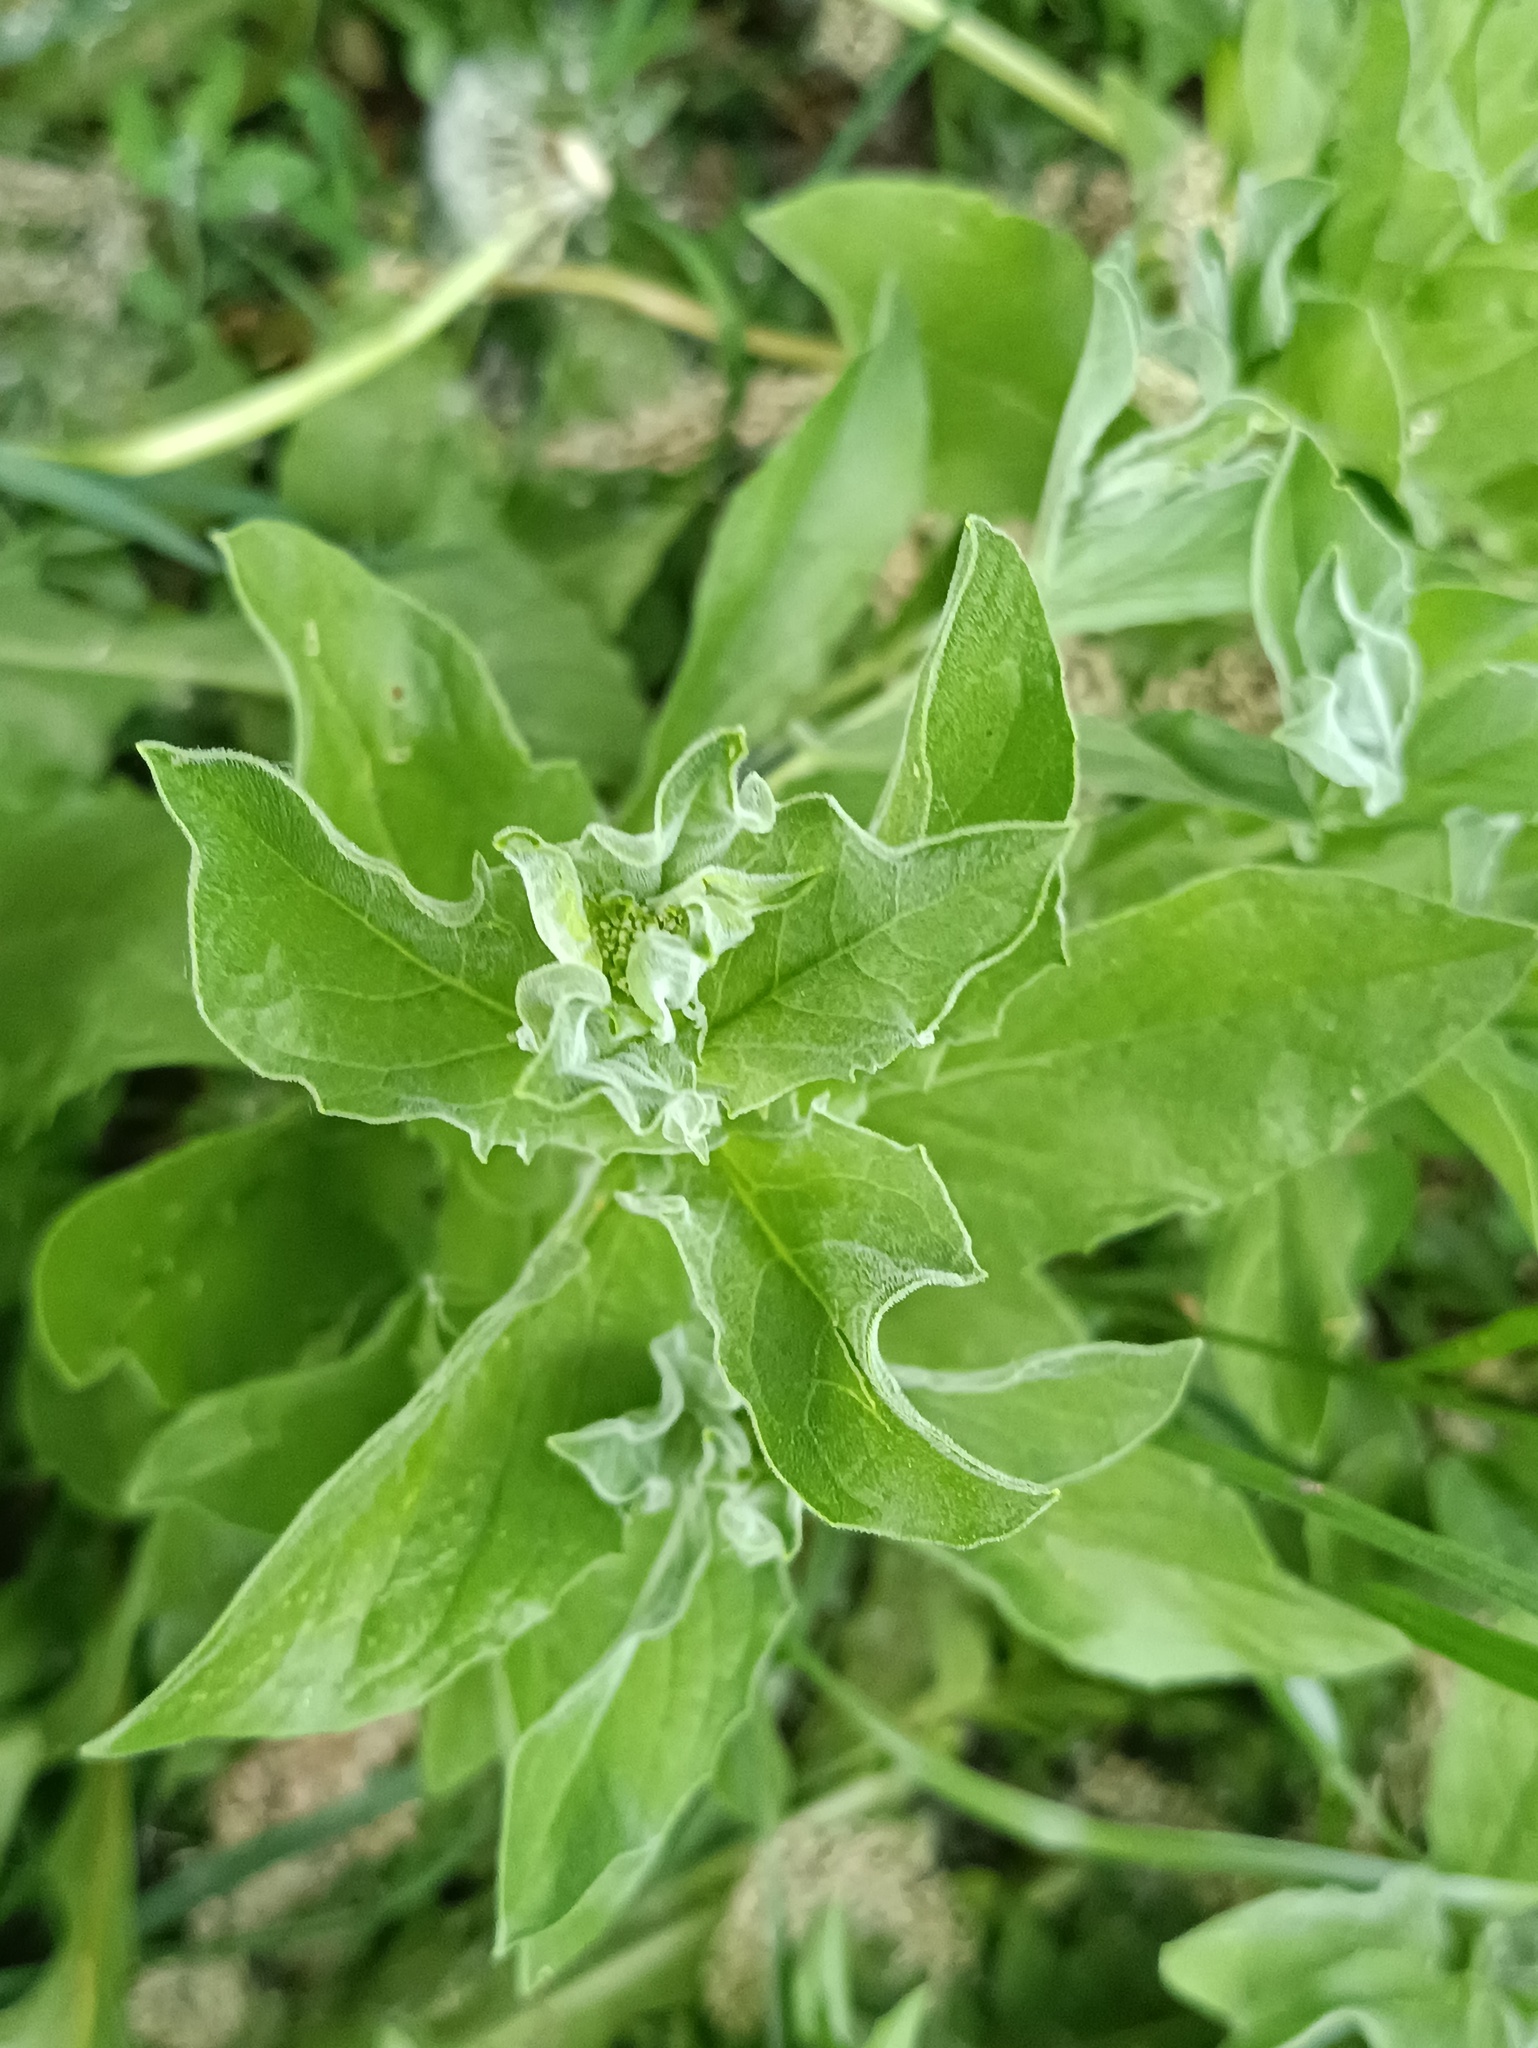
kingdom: Plantae
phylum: Tracheophyta
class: Magnoliopsida
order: Brassicales
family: Brassicaceae
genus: Lepidium
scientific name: Lepidium draba
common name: Hoary cress
